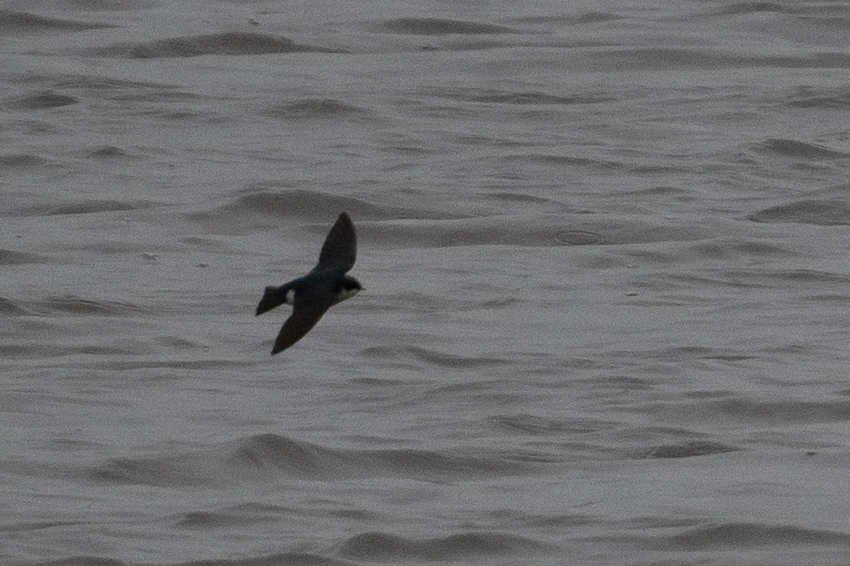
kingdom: Animalia
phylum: Chordata
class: Aves
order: Passeriformes
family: Hirundinidae
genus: Tachycineta
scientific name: Tachycineta bicolor
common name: Tree swallow
